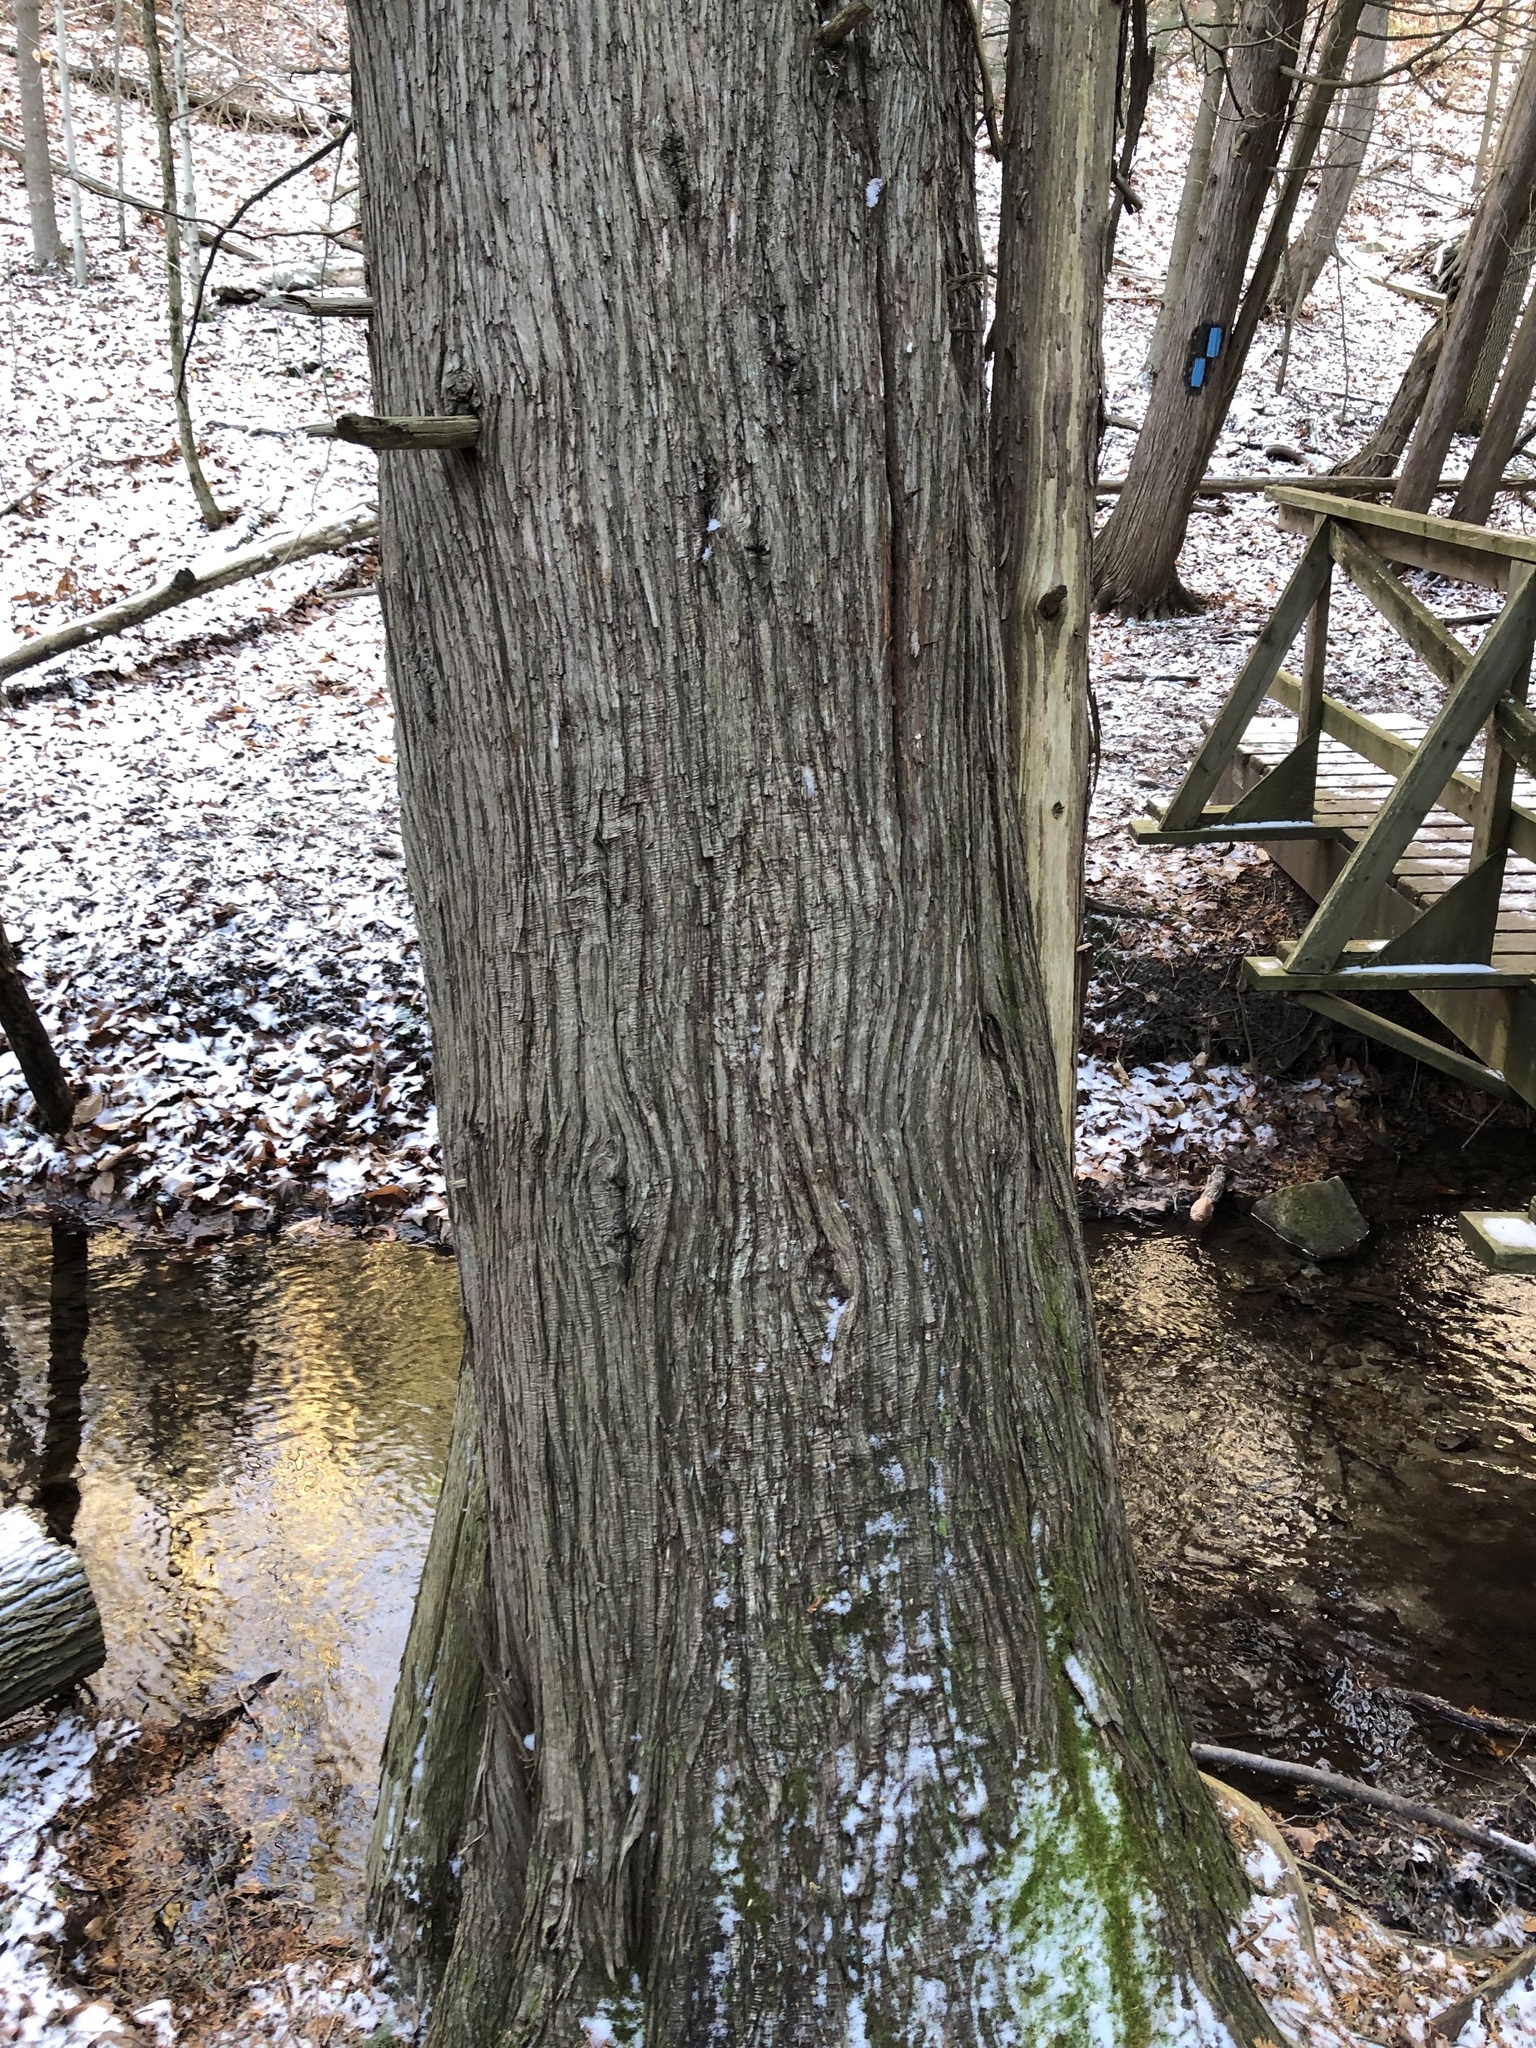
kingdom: Plantae
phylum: Tracheophyta
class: Pinopsida
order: Pinales
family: Cupressaceae
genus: Thuja
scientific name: Thuja occidentalis
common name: Northern white-cedar
